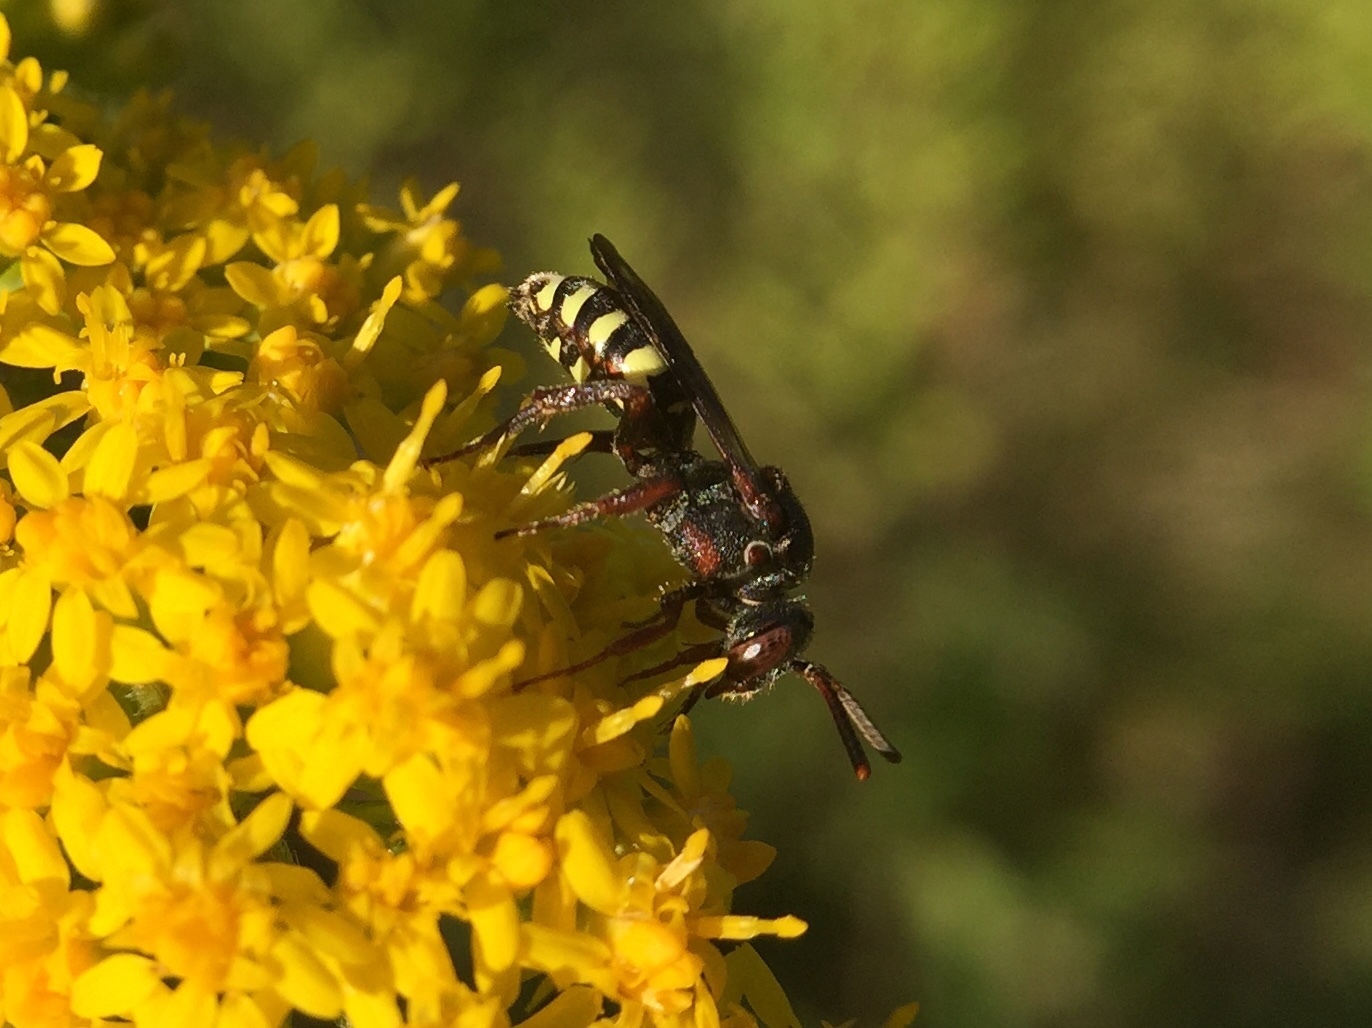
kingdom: Animalia
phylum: Arthropoda
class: Insecta
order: Hymenoptera
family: Apidae
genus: Nomada
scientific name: Nomada vicina
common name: Neighborly nomad
